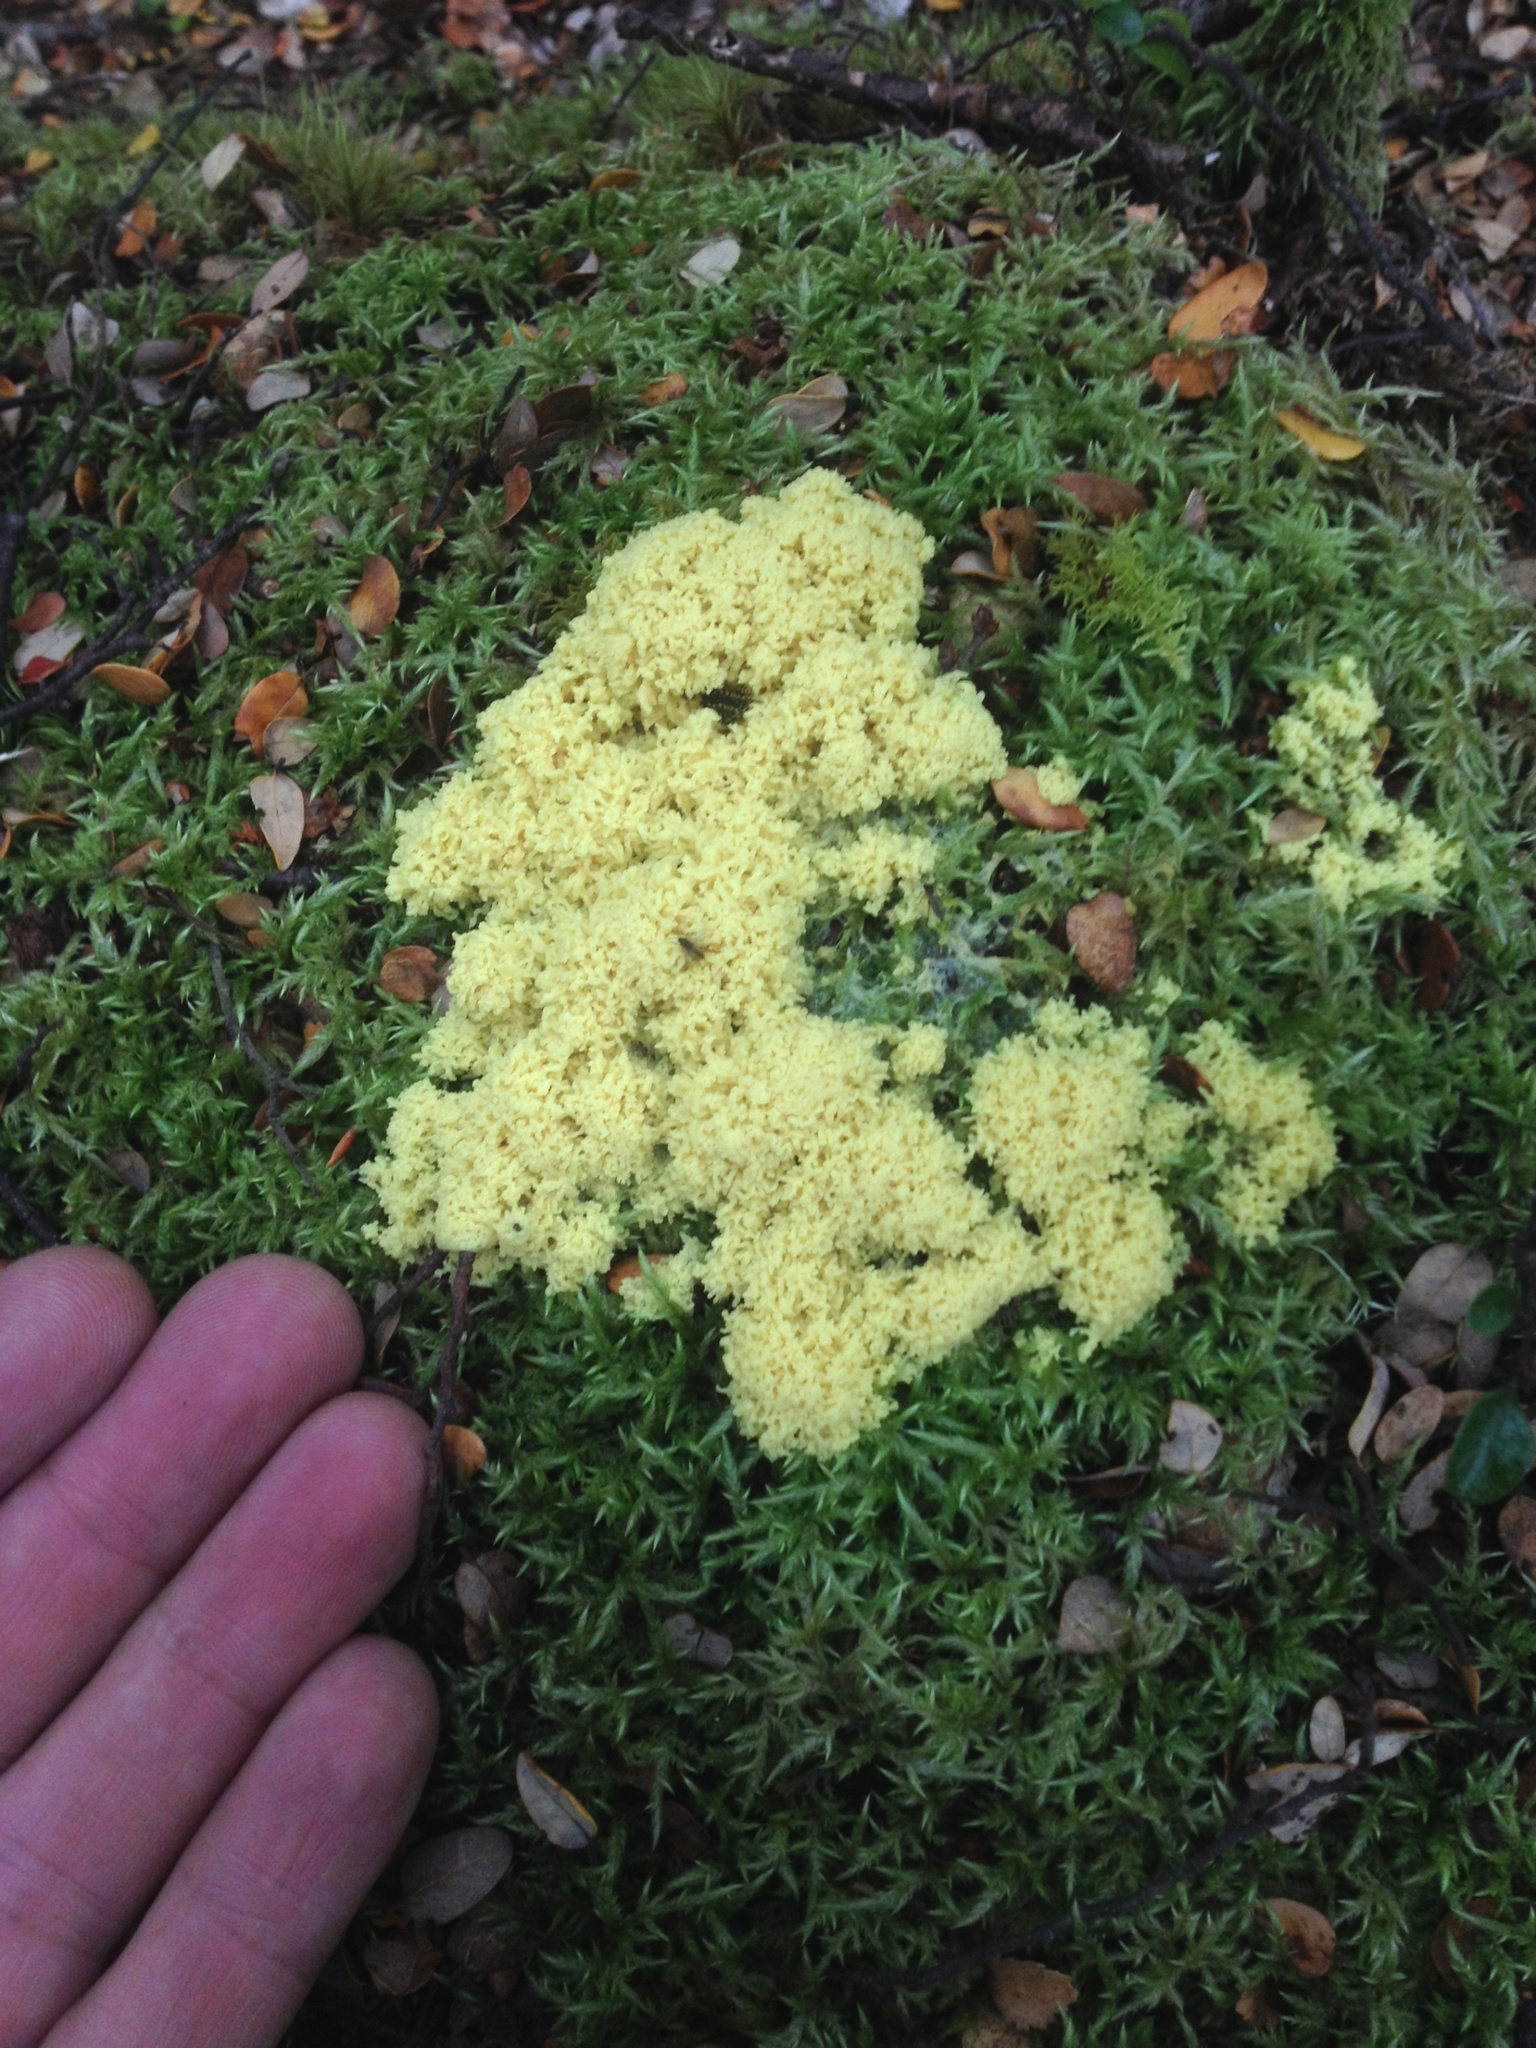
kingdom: Protozoa
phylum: Mycetozoa
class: Myxomycetes
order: Physarales
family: Physaraceae
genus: Fuligo
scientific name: Fuligo septica
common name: Dog vomit slime mold
